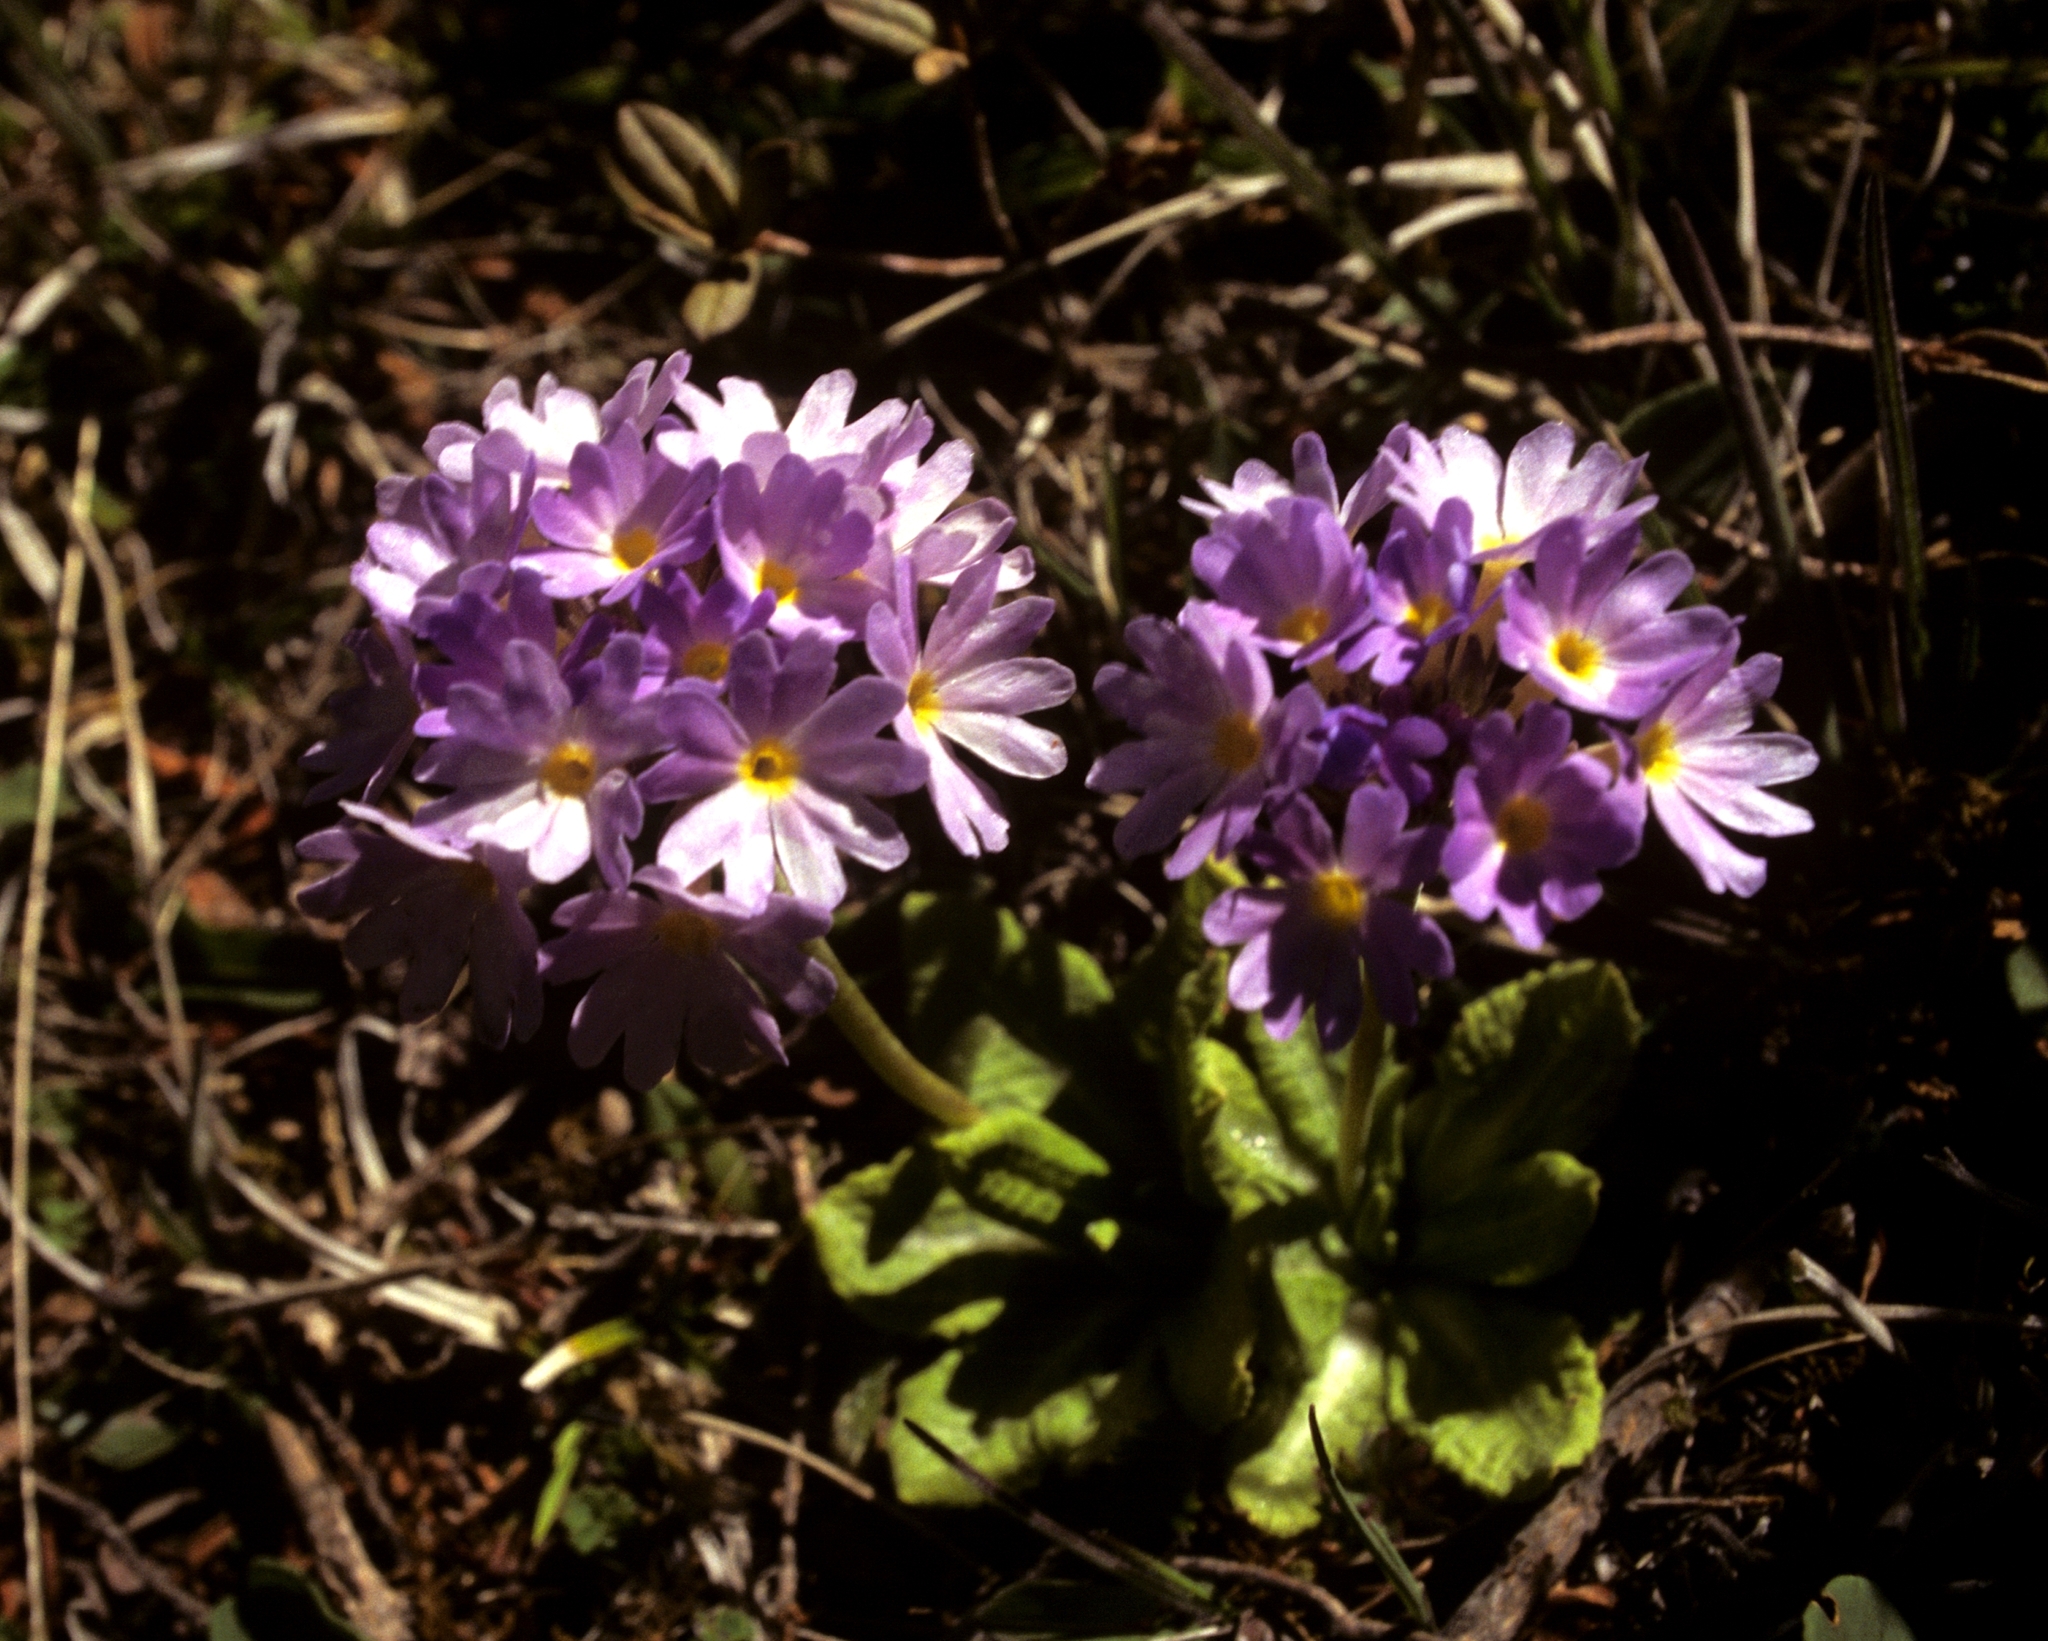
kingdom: Plantae
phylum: Tracheophyta
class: Magnoliopsida
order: Ericales
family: Primulaceae
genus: Primula
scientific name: Primula atrodentata
